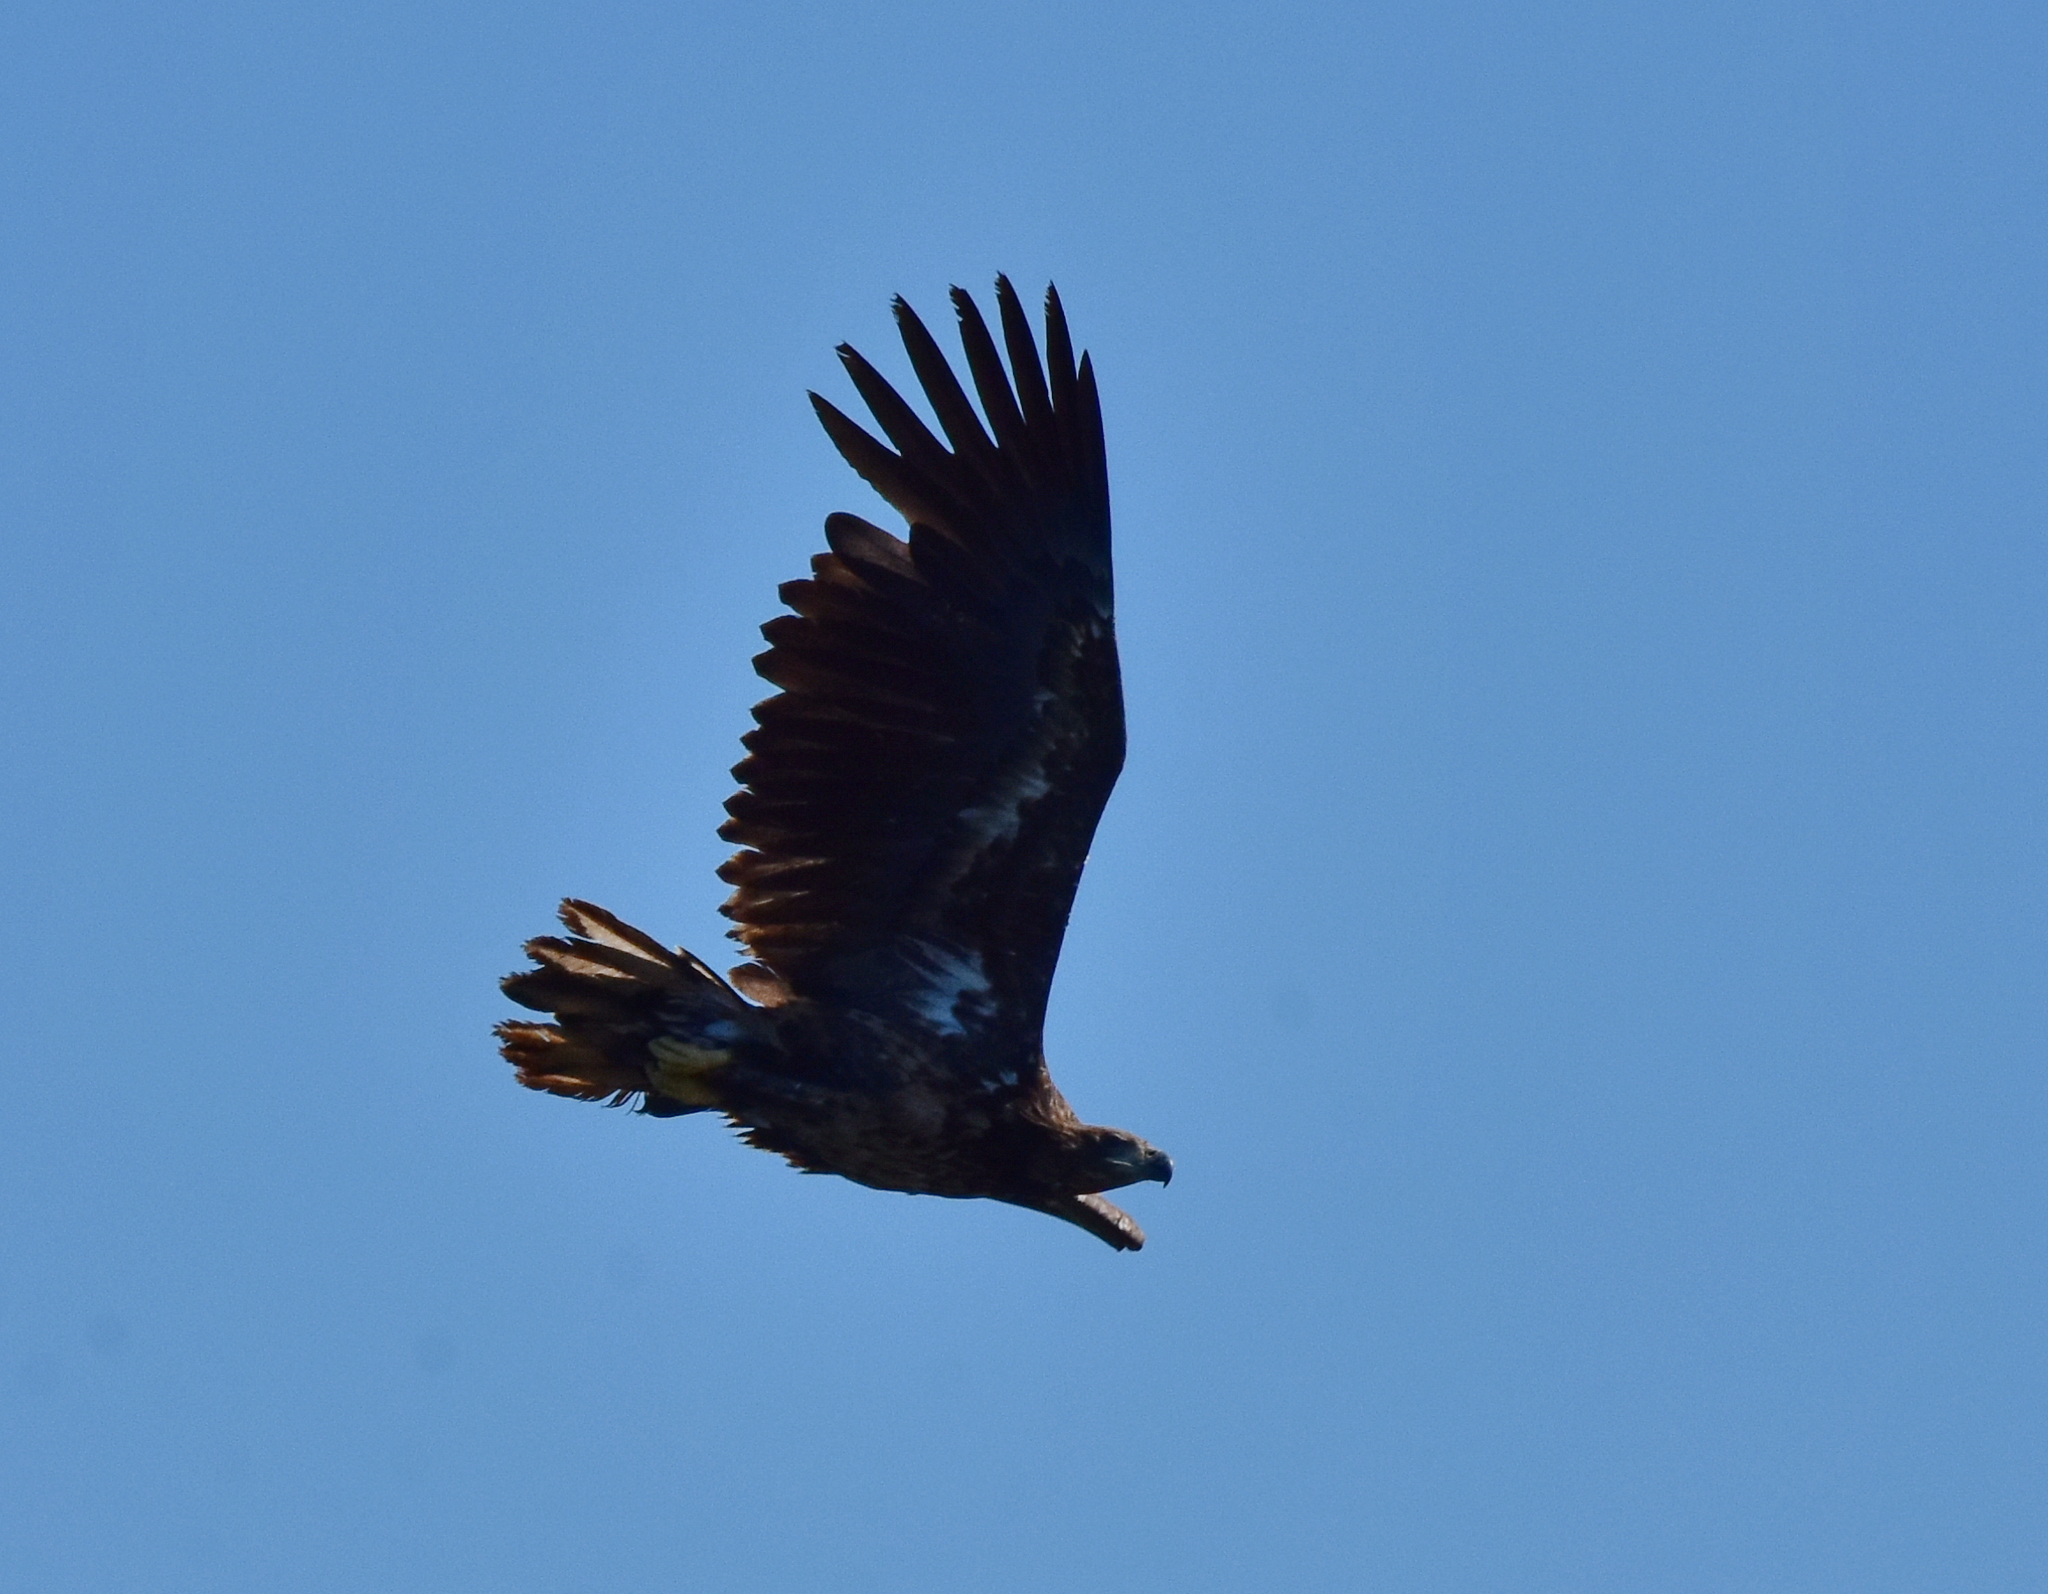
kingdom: Animalia
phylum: Chordata
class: Aves
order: Accipitriformes
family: Accipitridae
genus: Haliaeetus
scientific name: Haliaeetus albicilla
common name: White-tailed eagle
